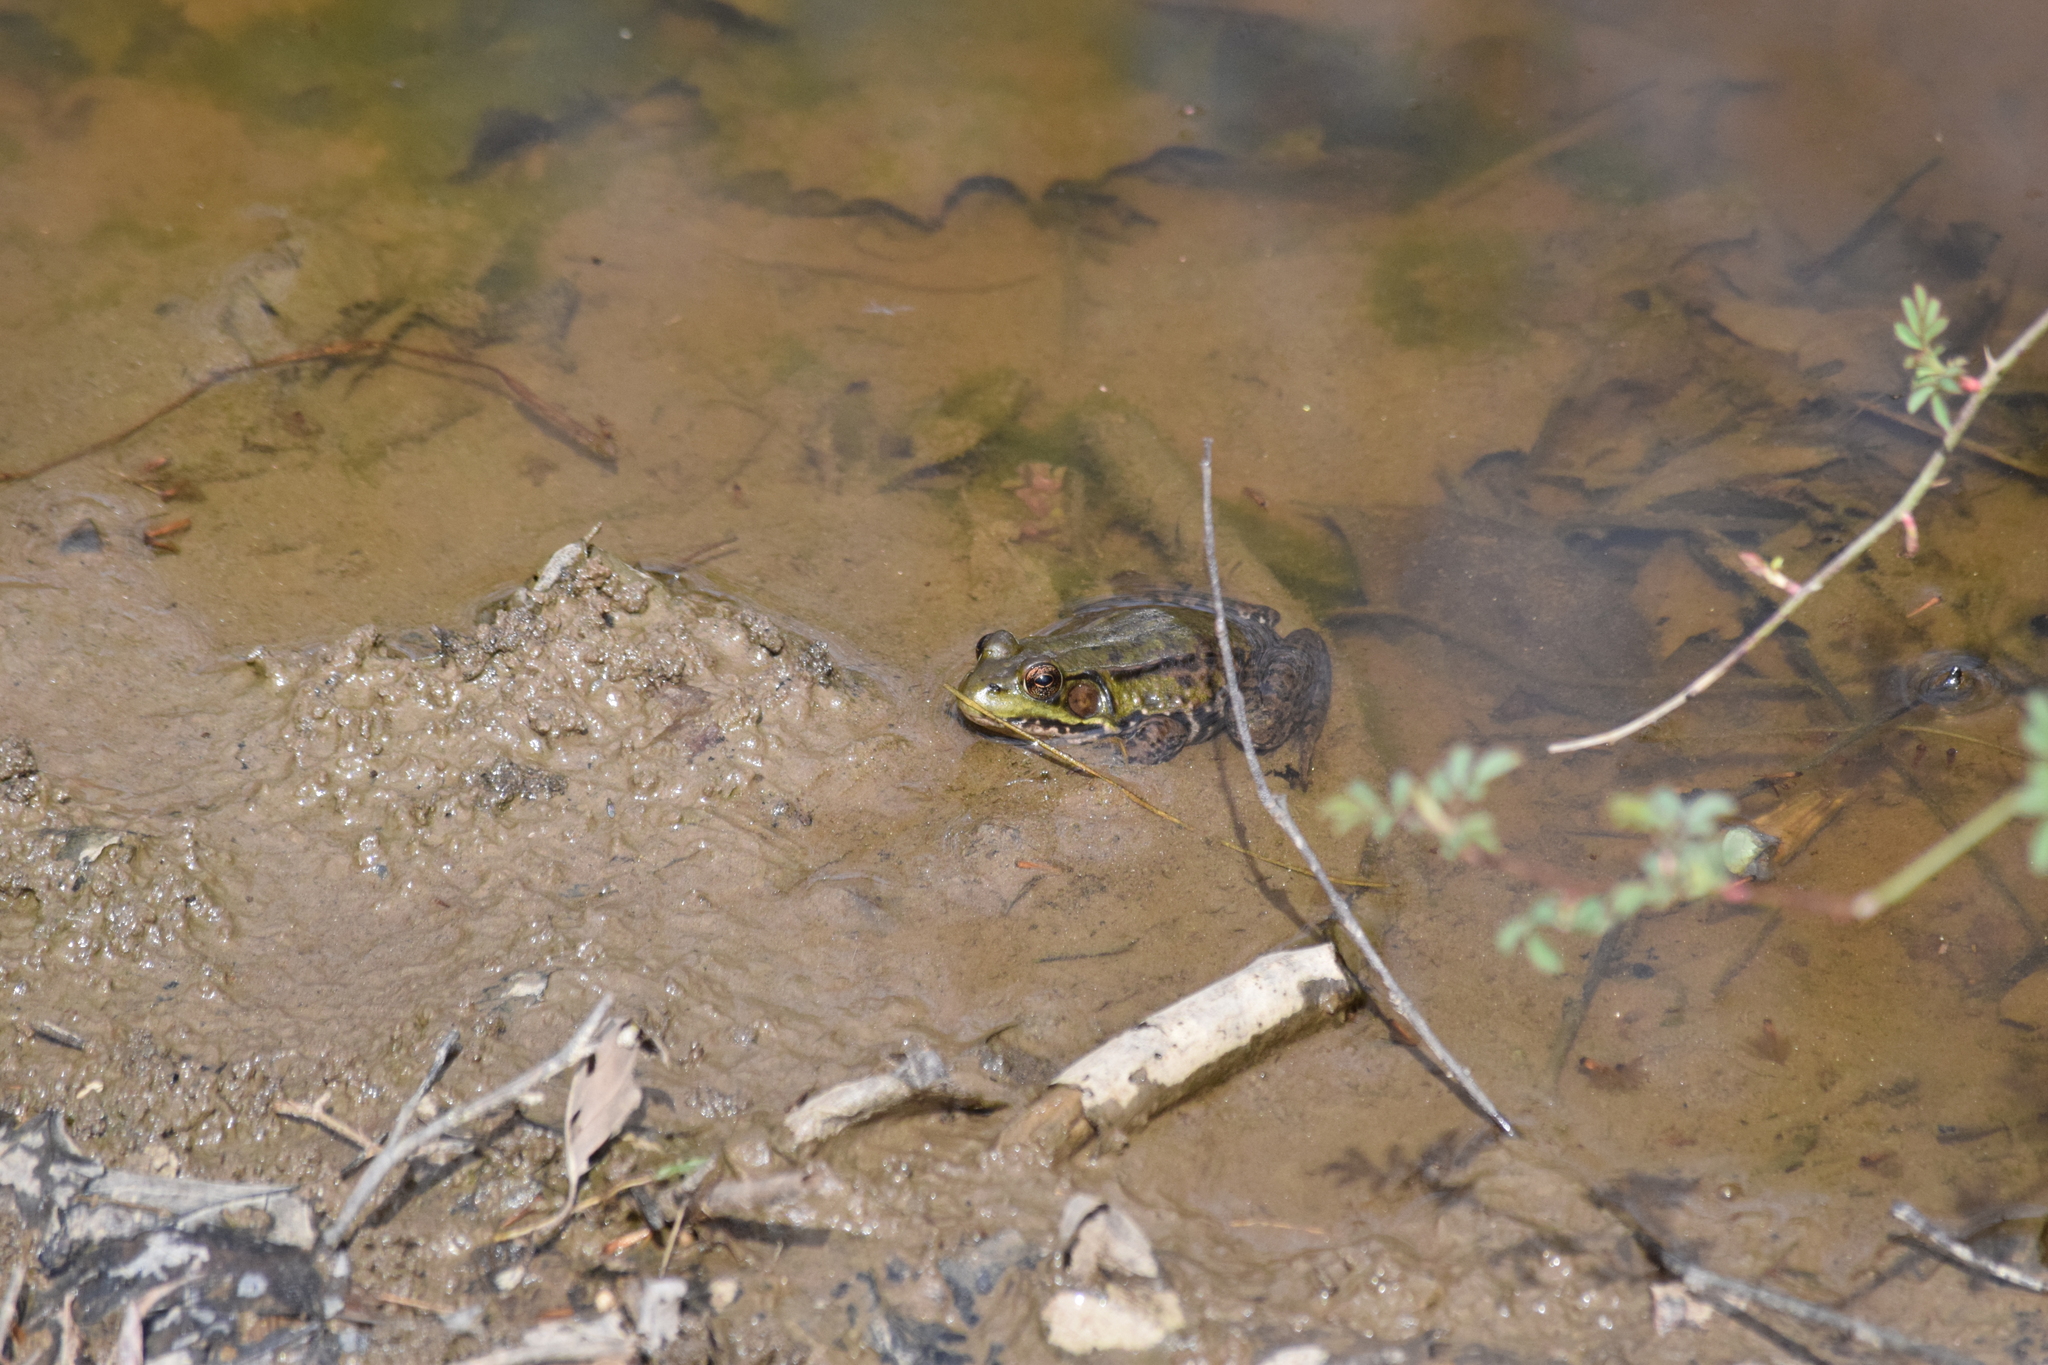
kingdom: Animalia
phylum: Chordata
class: Amphibia
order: Anura
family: Ranidae
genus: Lithobates
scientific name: Lithobates clamitans
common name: Green frog
